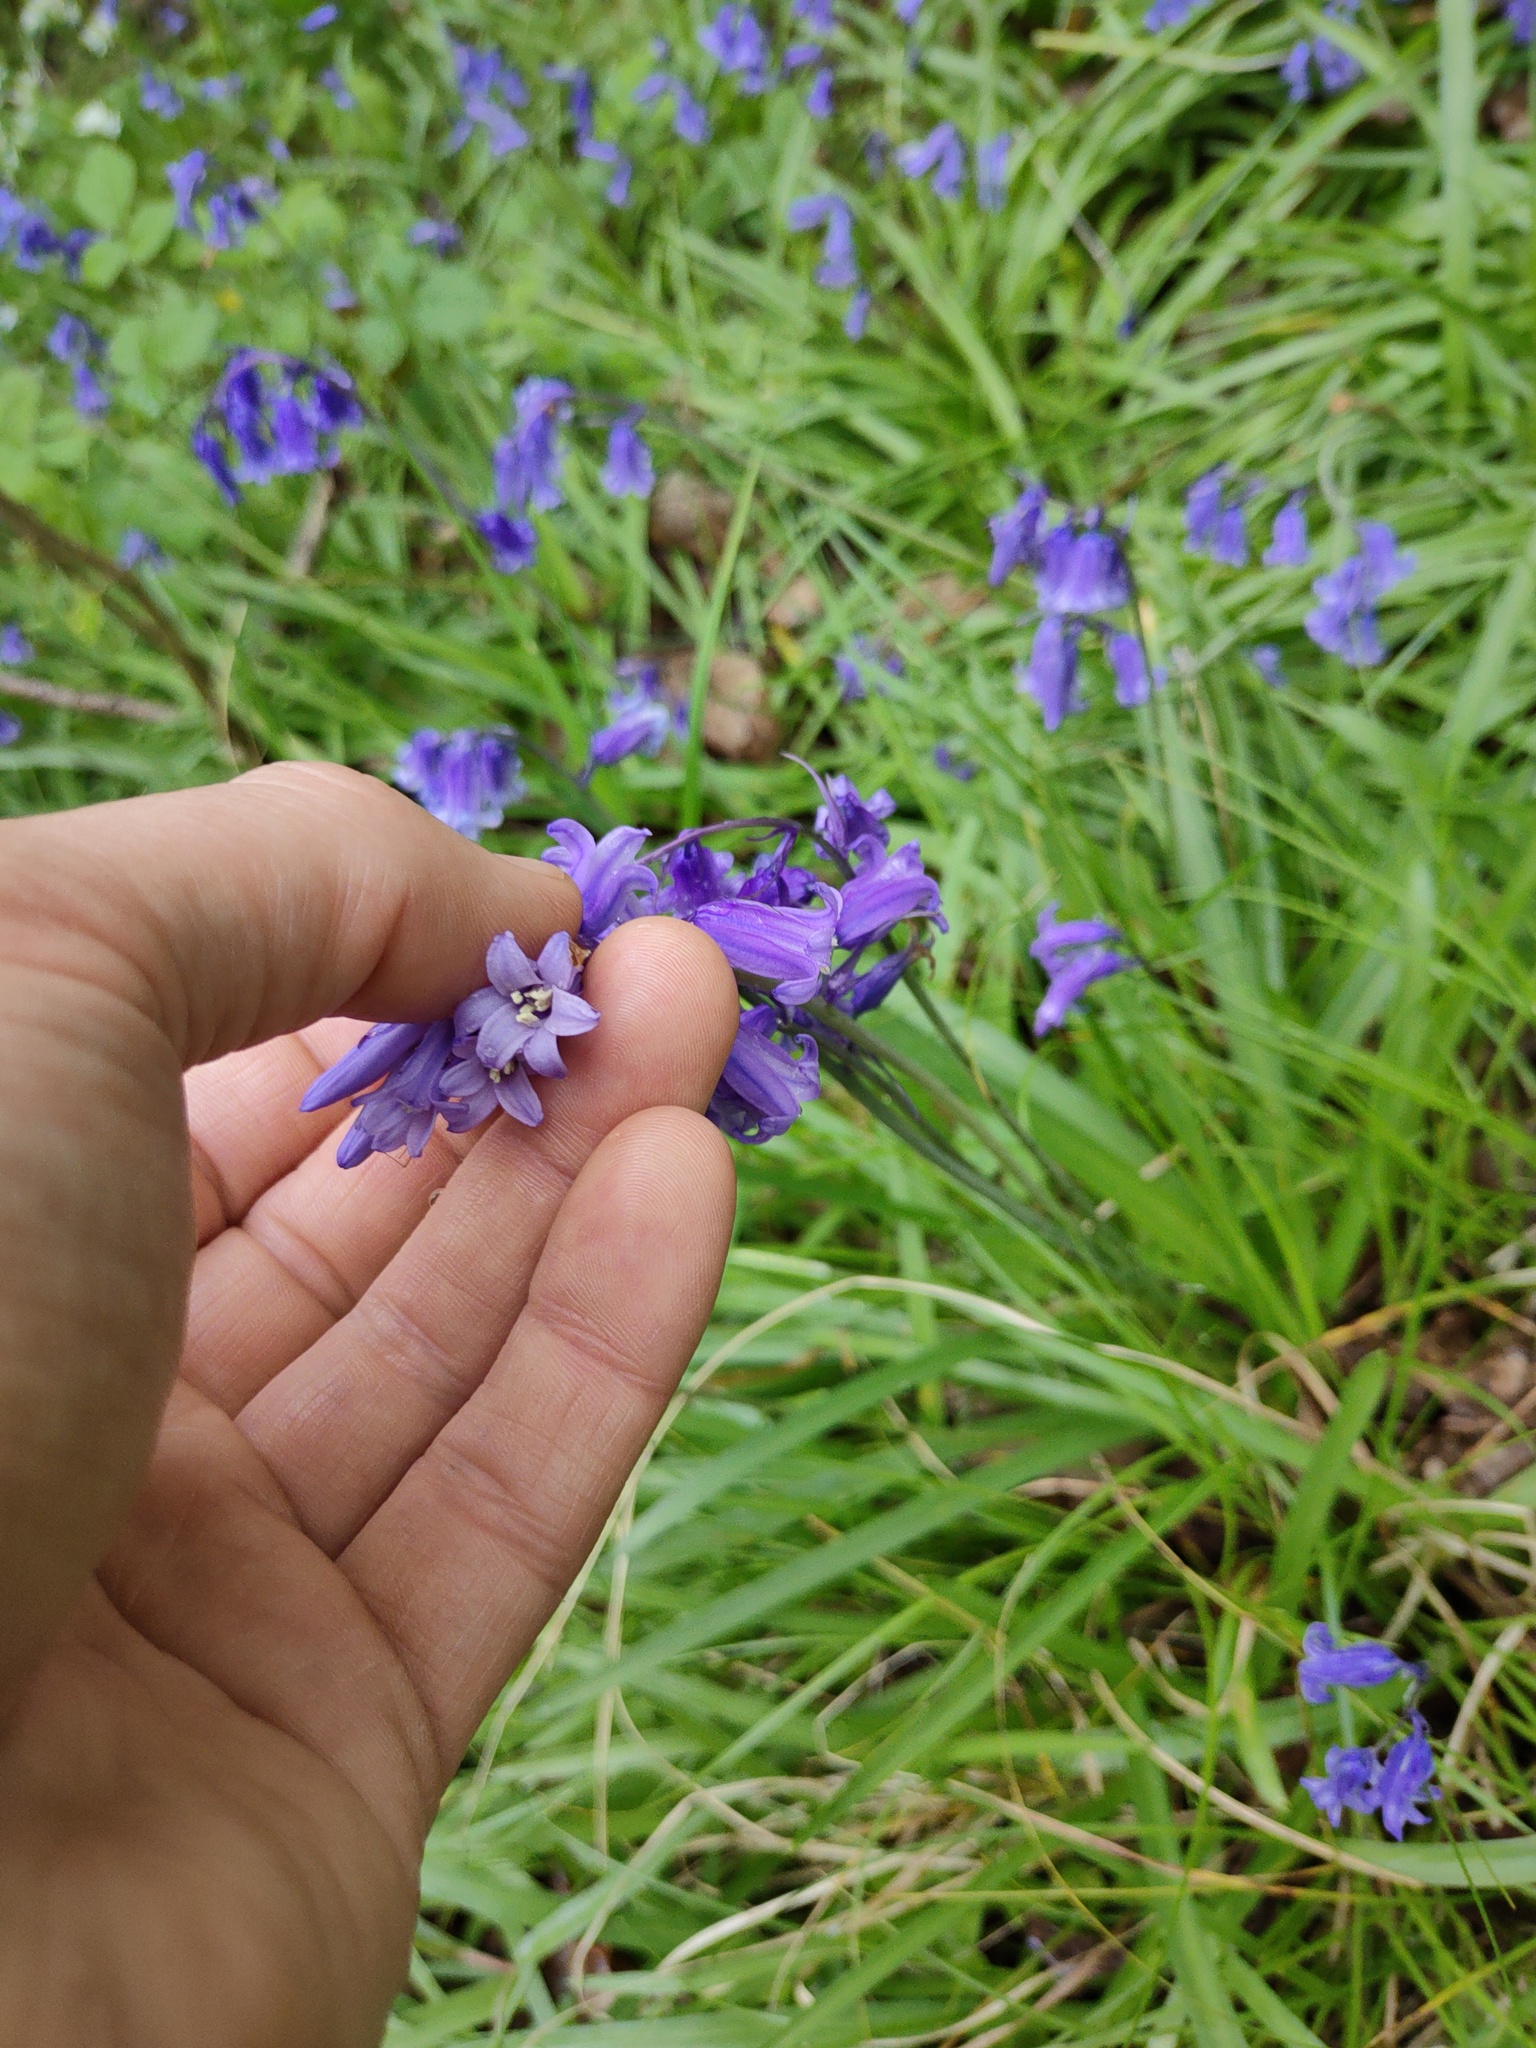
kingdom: Plantae
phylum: Tracheophyta
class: Liliopsida
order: Asparagales
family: Asparagaceae
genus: Hyacinthoides
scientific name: Hyacinthoides non-scripta
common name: Bluebell
